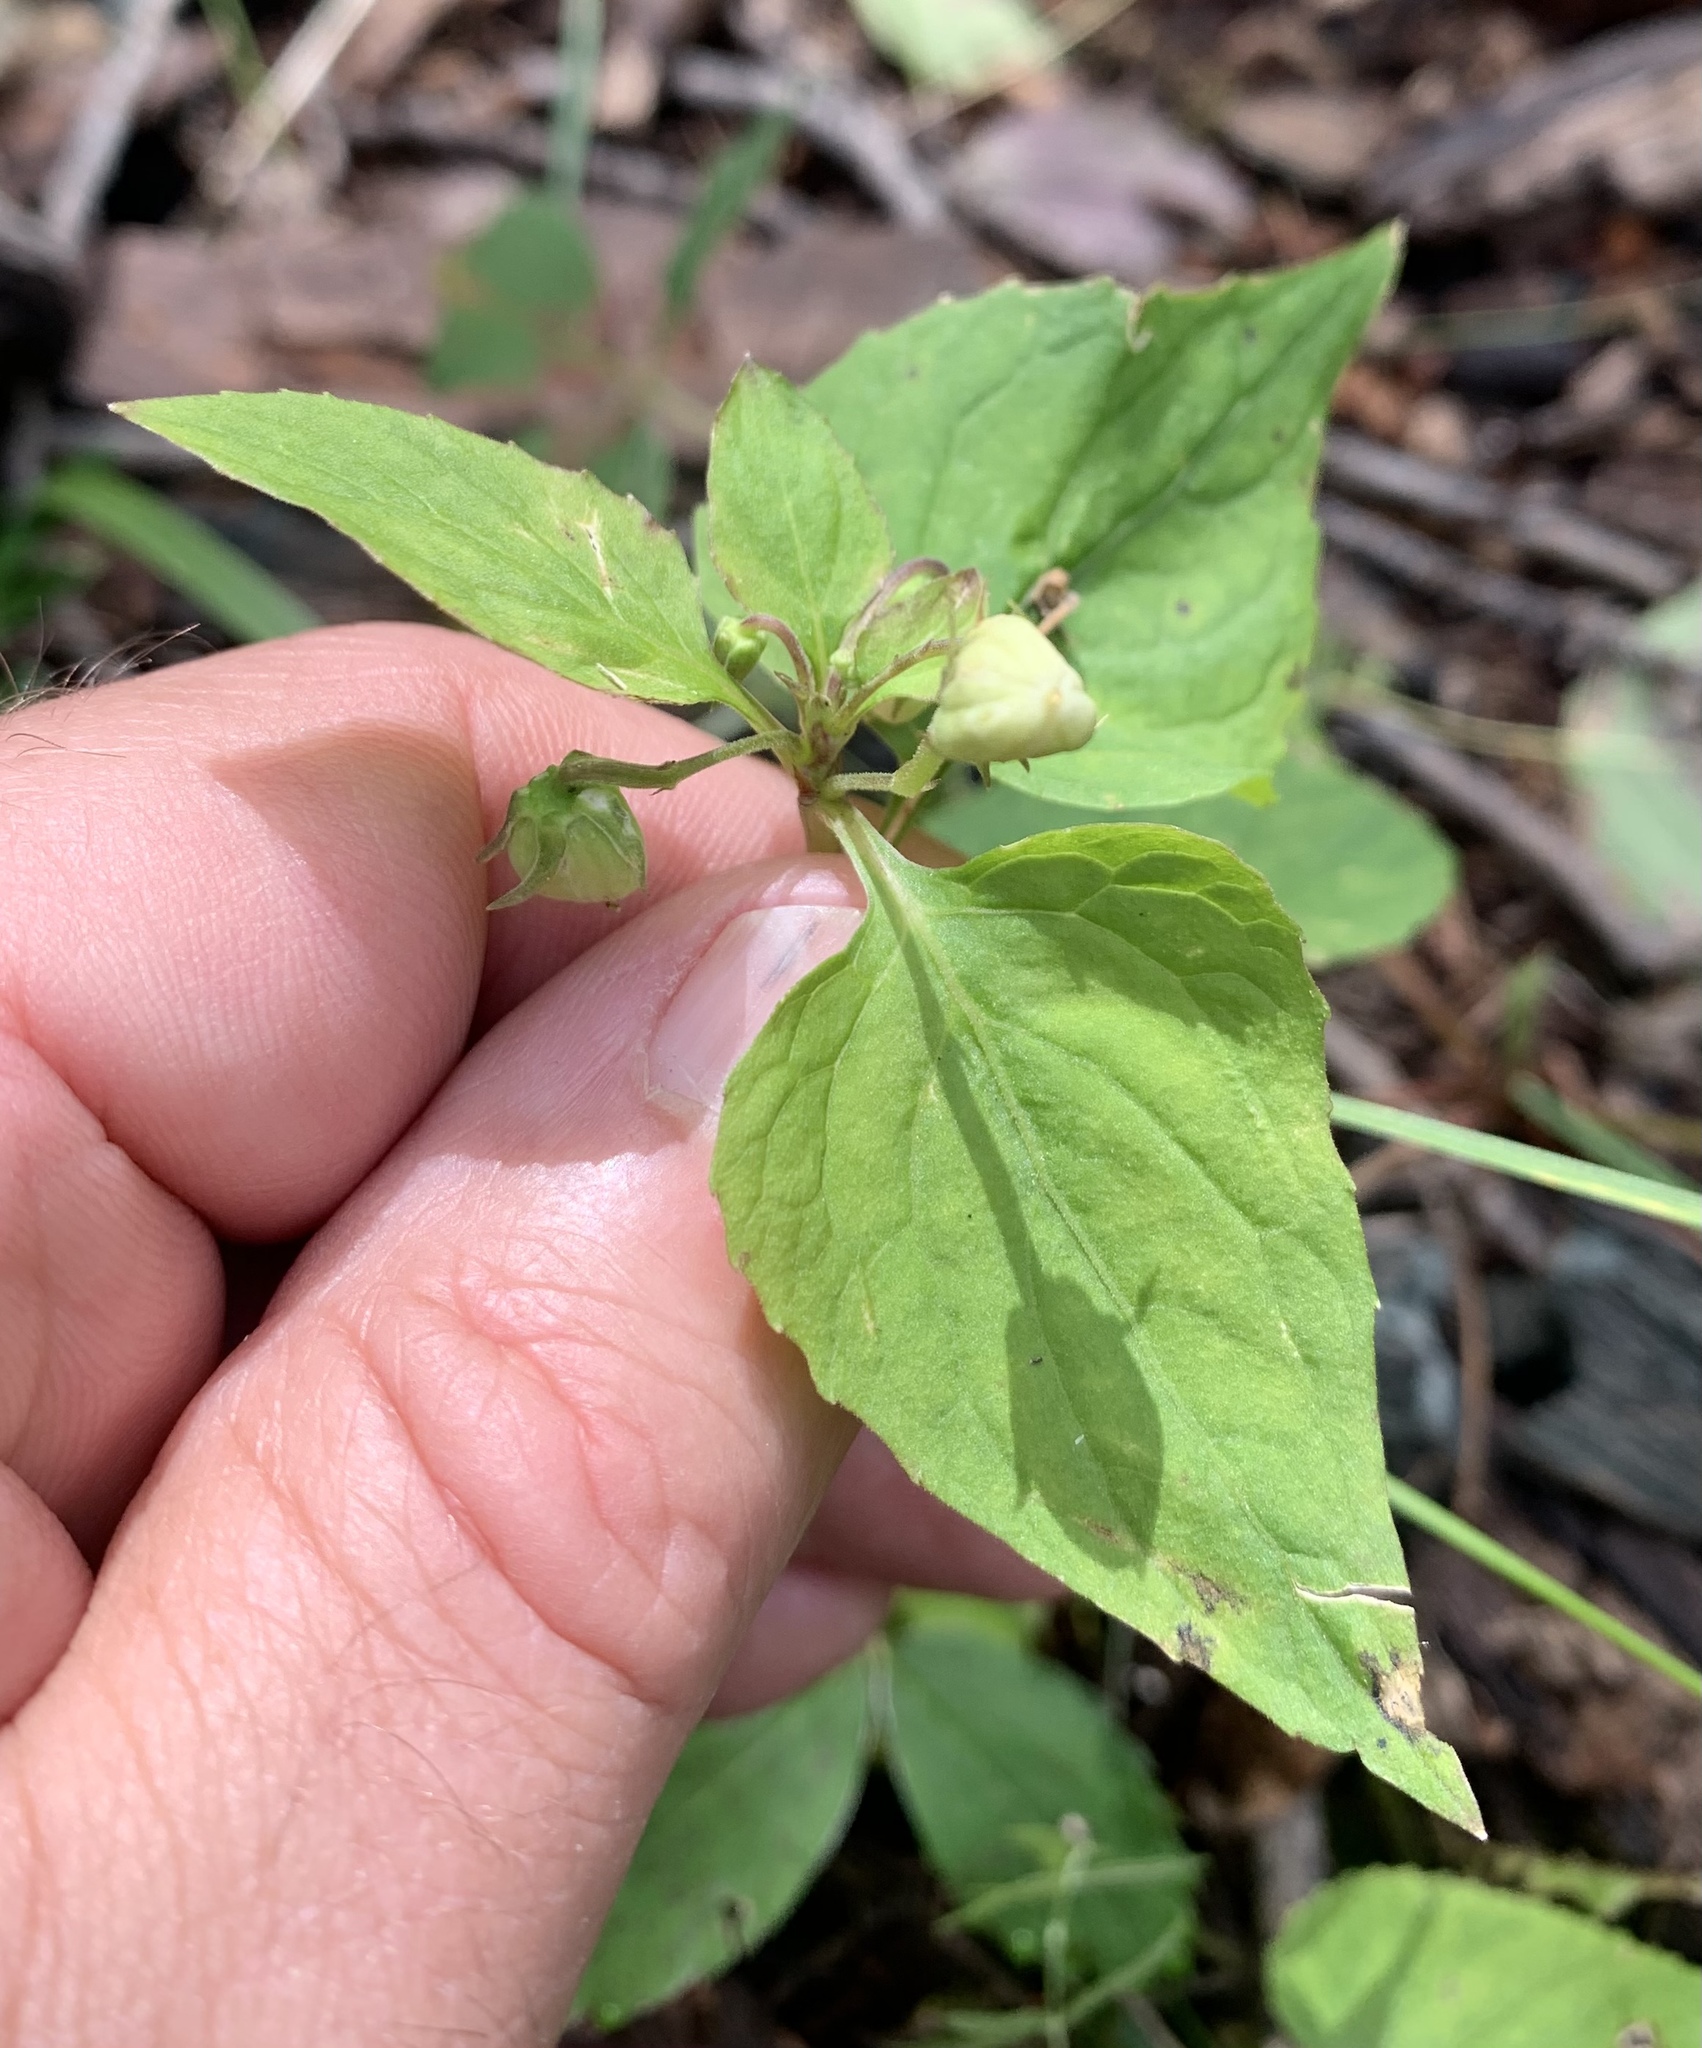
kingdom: Plantae
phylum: Tracheophyta
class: Magnoliopsida
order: Malpighiales
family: Violaceae
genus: Viola
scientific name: Viola canadensis
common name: Canada violet
